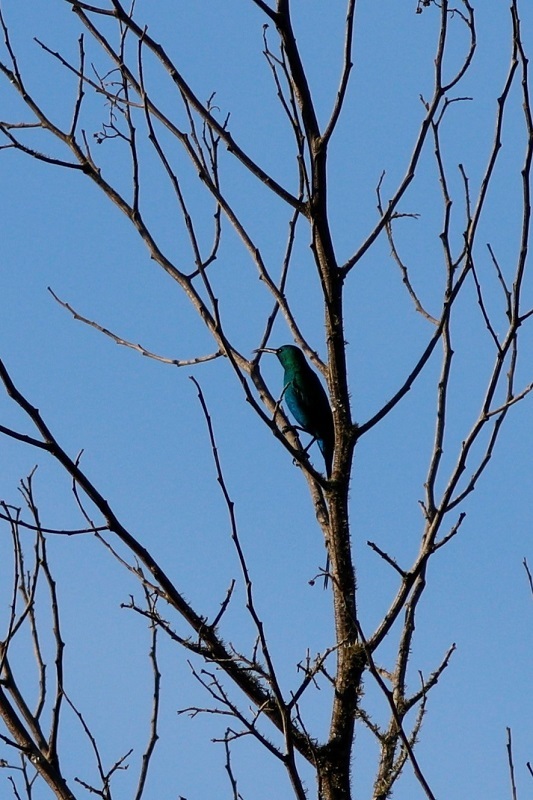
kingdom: Animalia
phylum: Chordata
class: Aves
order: Passeriformes
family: Nectariniidae
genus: Nectarinia
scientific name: Nectarinia famosa
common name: Malachite sunbird
